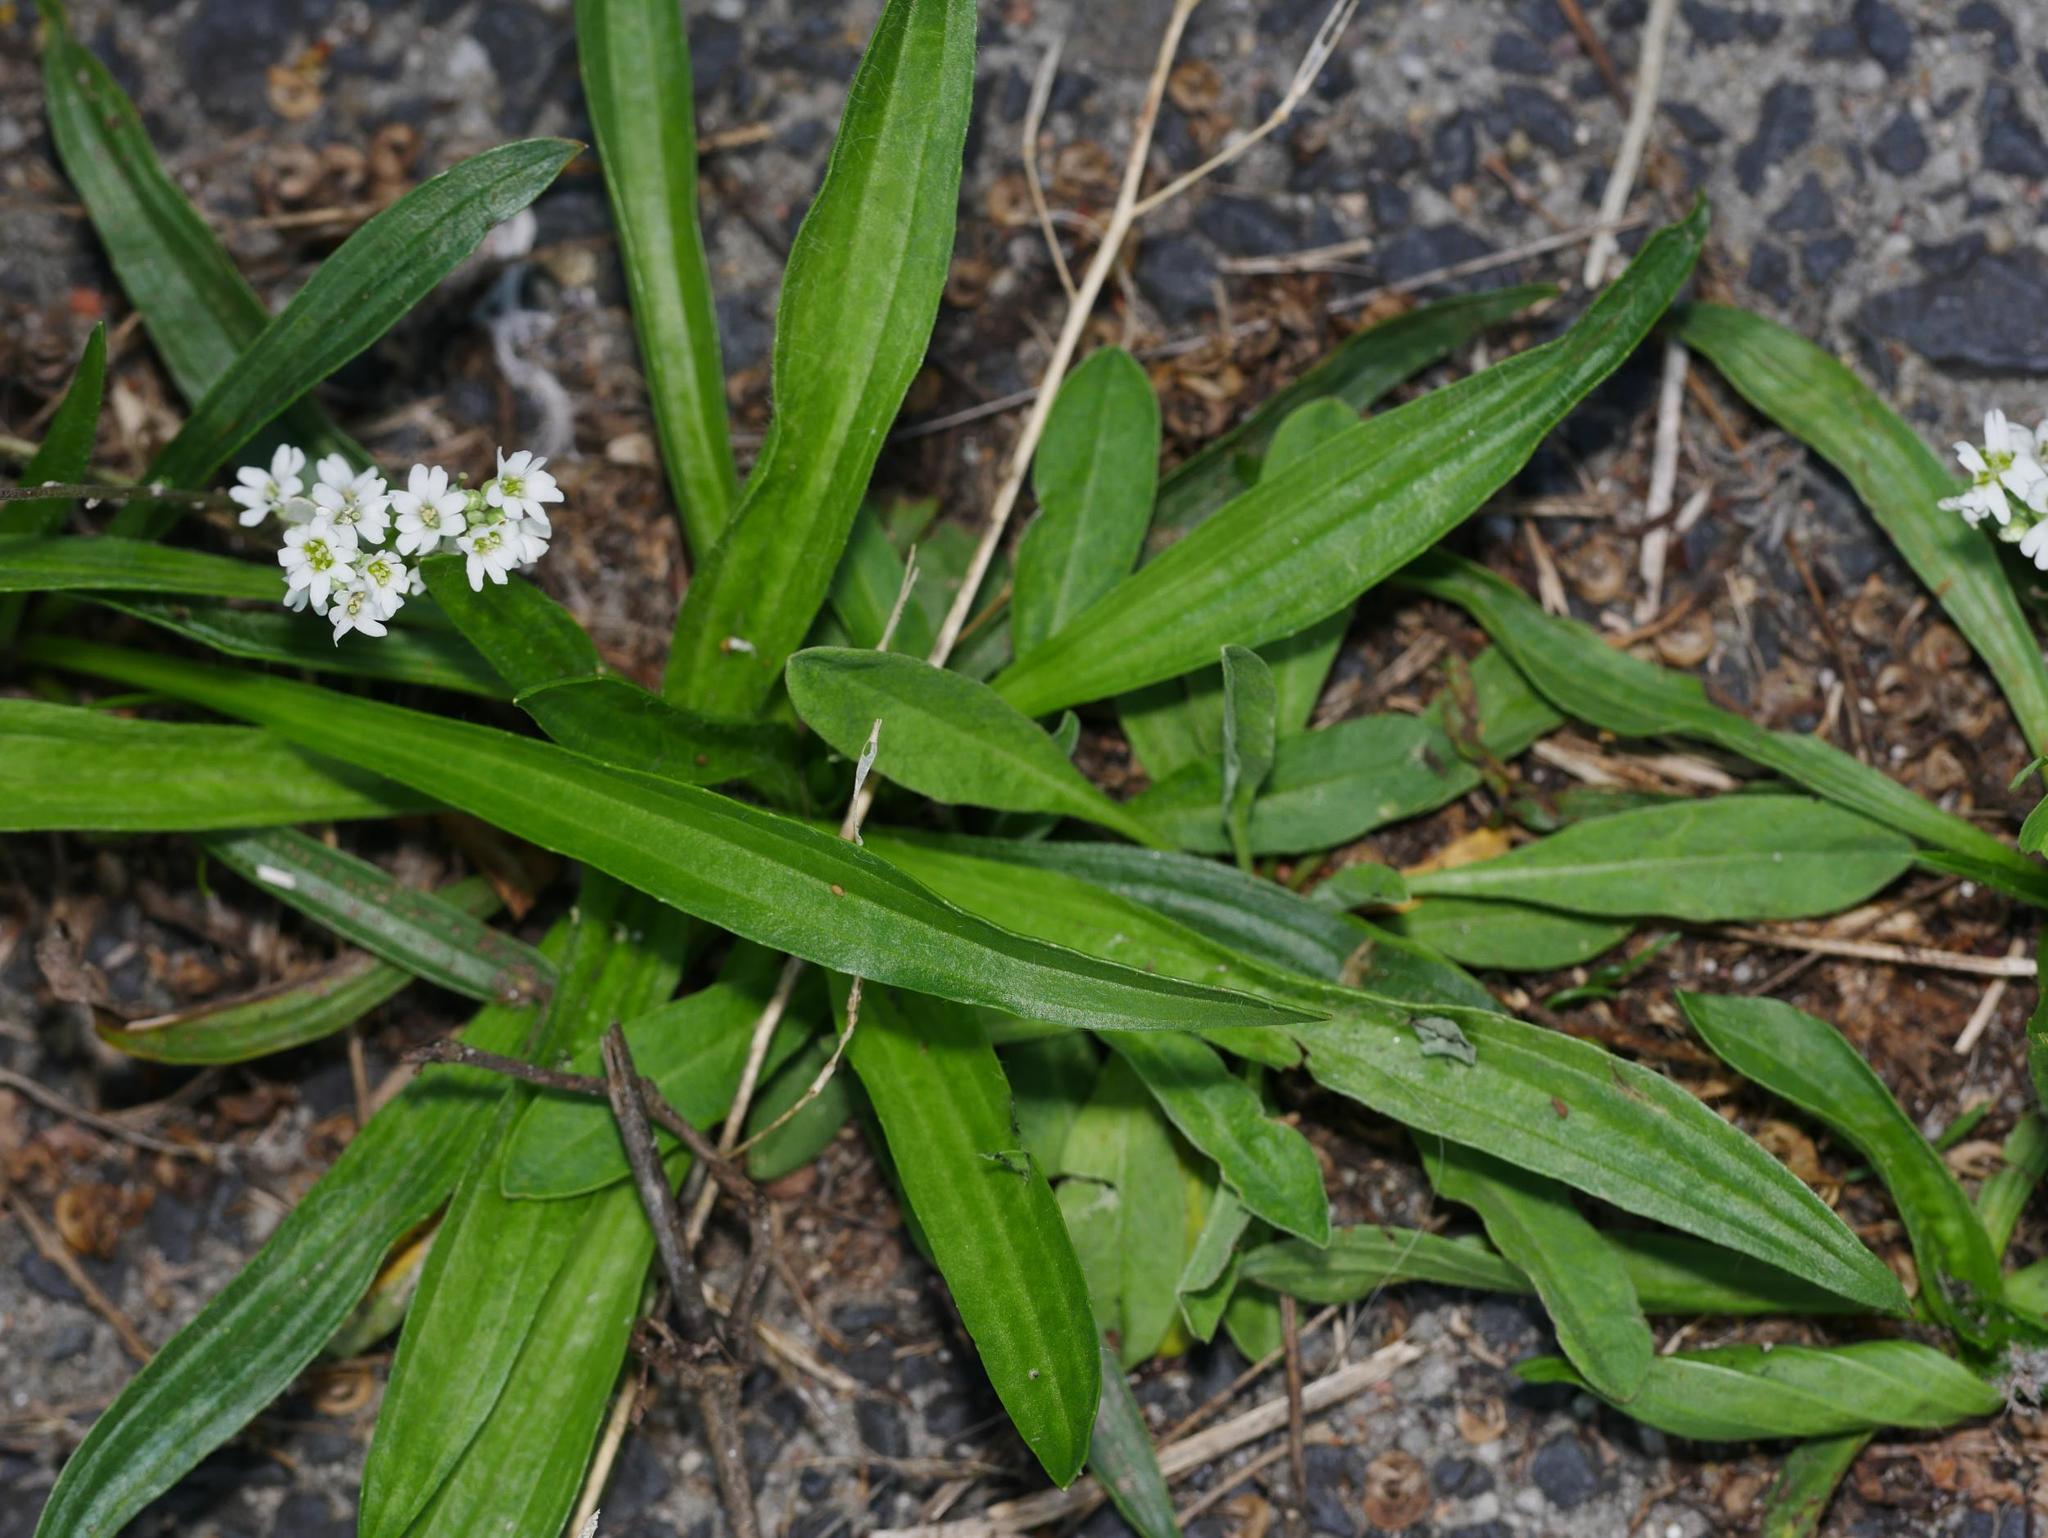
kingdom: Plantae
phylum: Tracheophyta
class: Magnoliopsida
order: Lamiales
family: Plantaginaceae
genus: Plantago
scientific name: Plantago lanceolata
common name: Ribwort plantain
